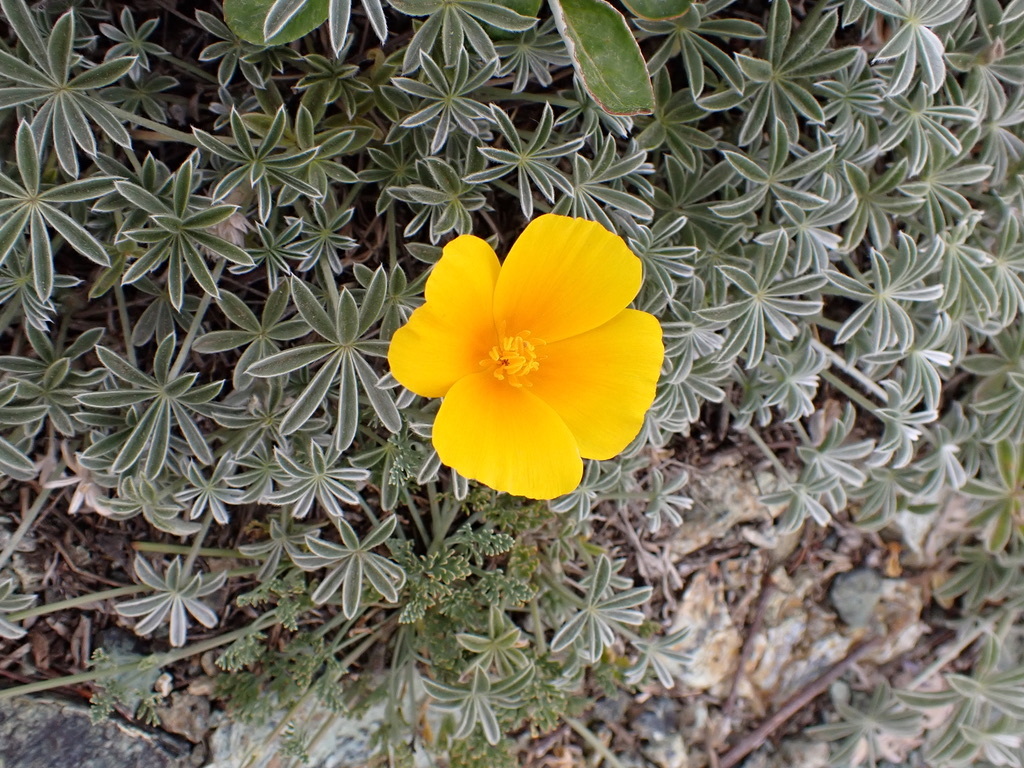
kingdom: Plantae
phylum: Tracheophyta
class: Magnoliopsida
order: Ranunculales
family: Papaveraceae
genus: Eschscholzia
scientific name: Eschscholzia californica
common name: California poppy
